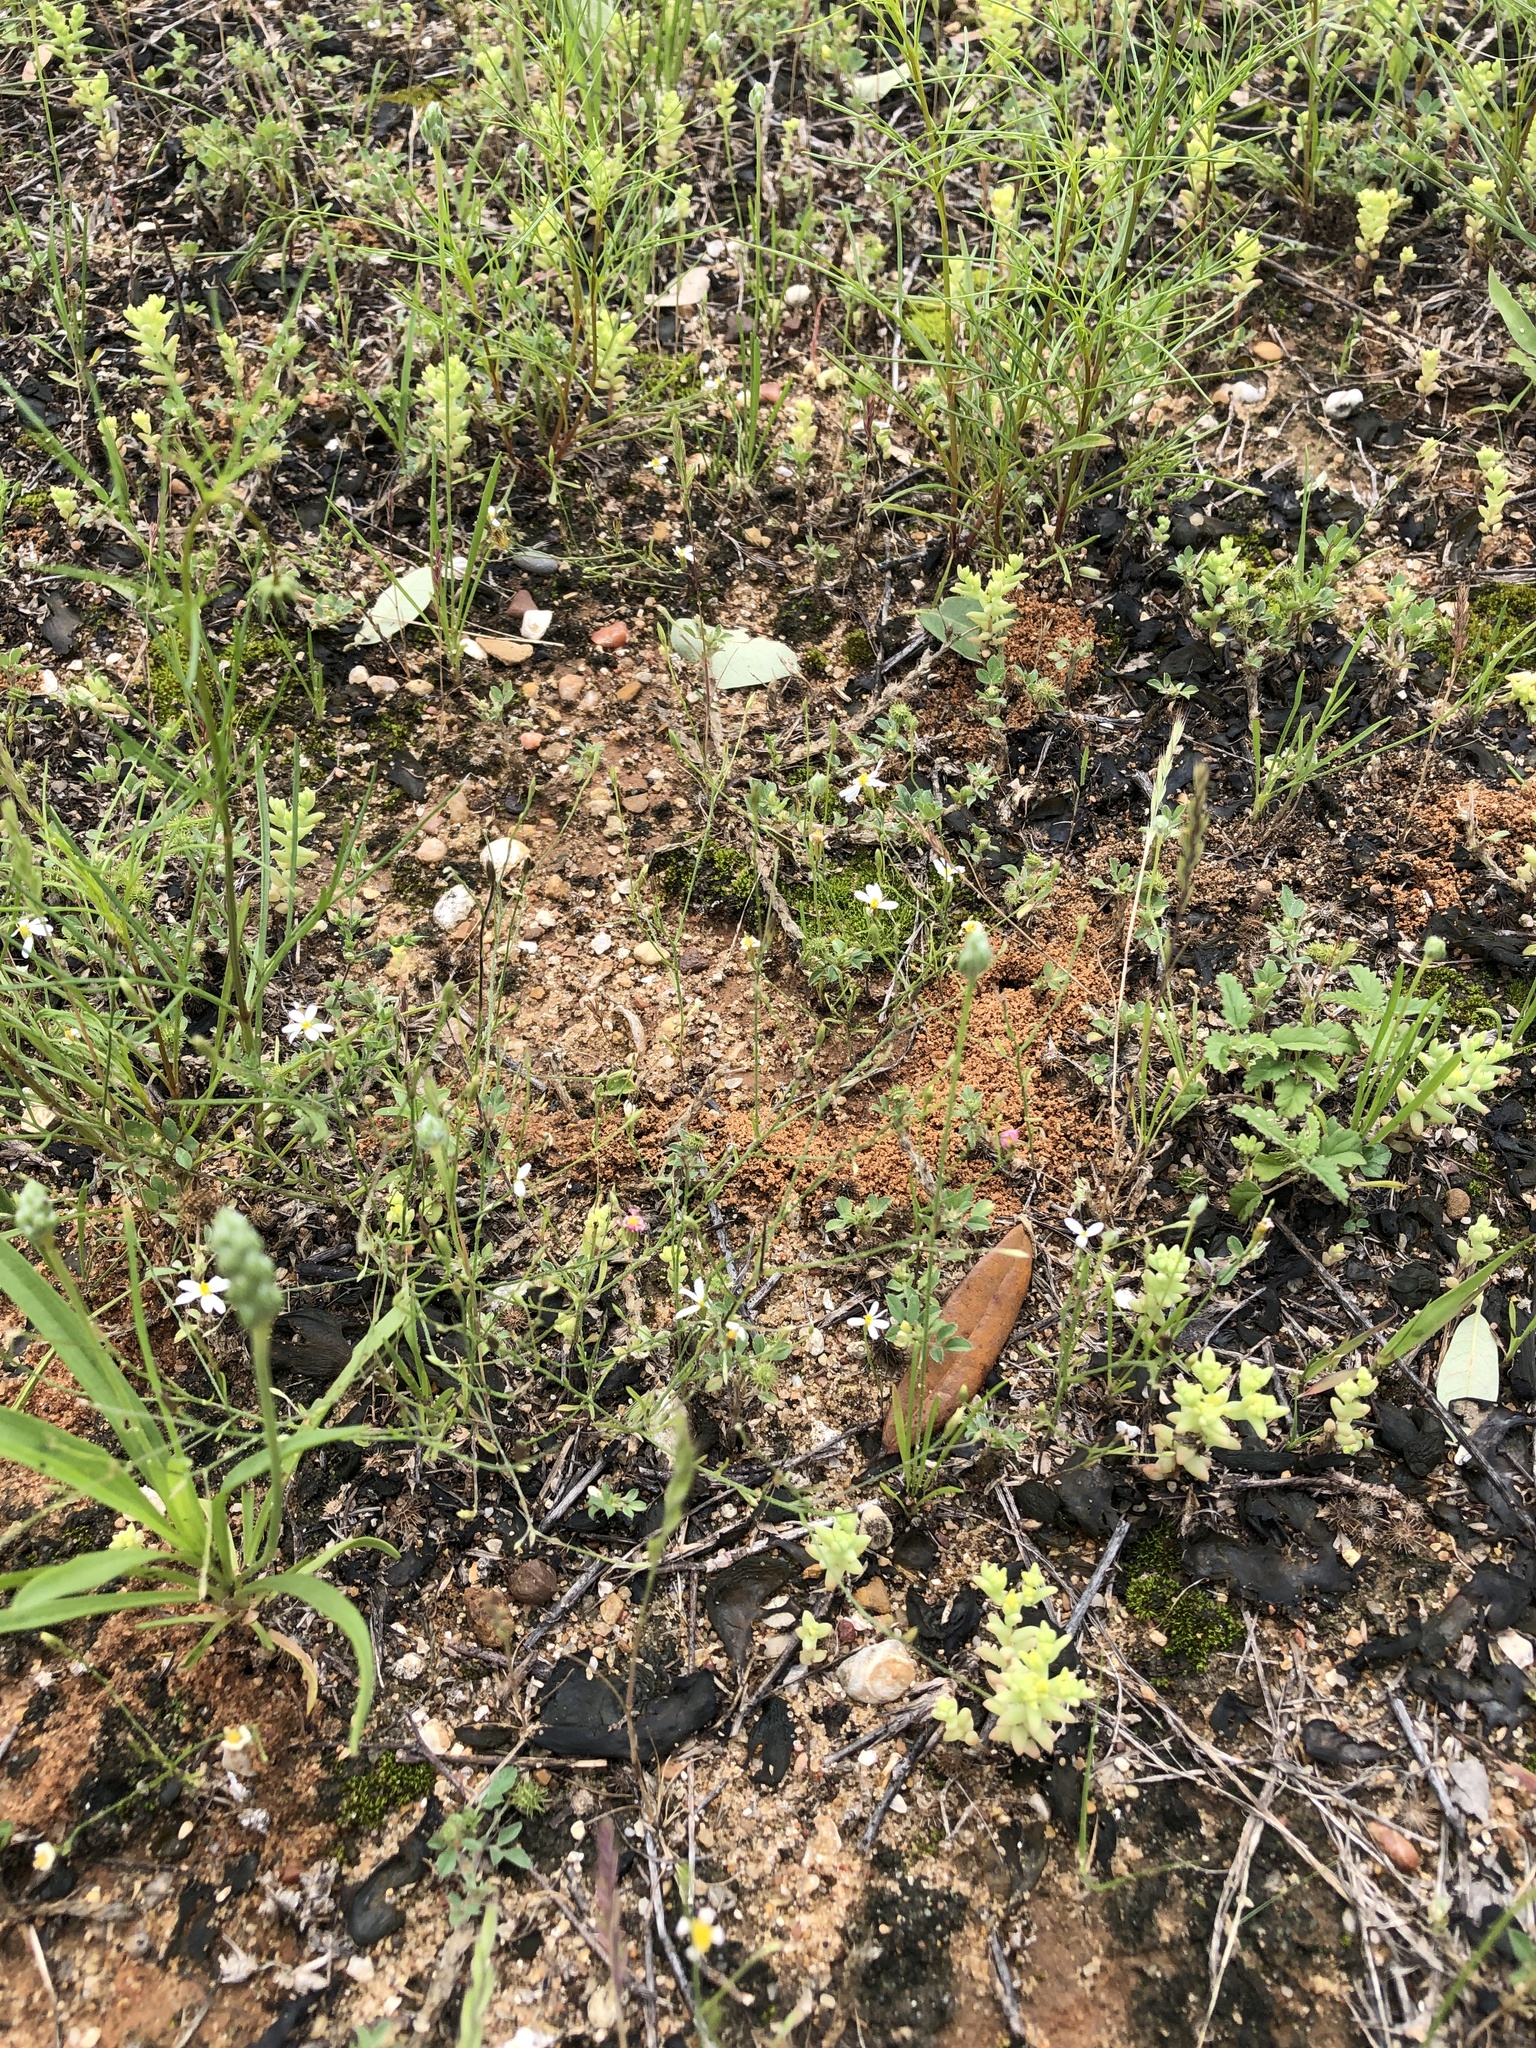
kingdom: Plantae
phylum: Tracheophyta
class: Magnoliopsida
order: Asterales
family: Asteraceae
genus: Chaetopappa
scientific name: Chaetopappa asteroides
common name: Tiny lazy daisy
